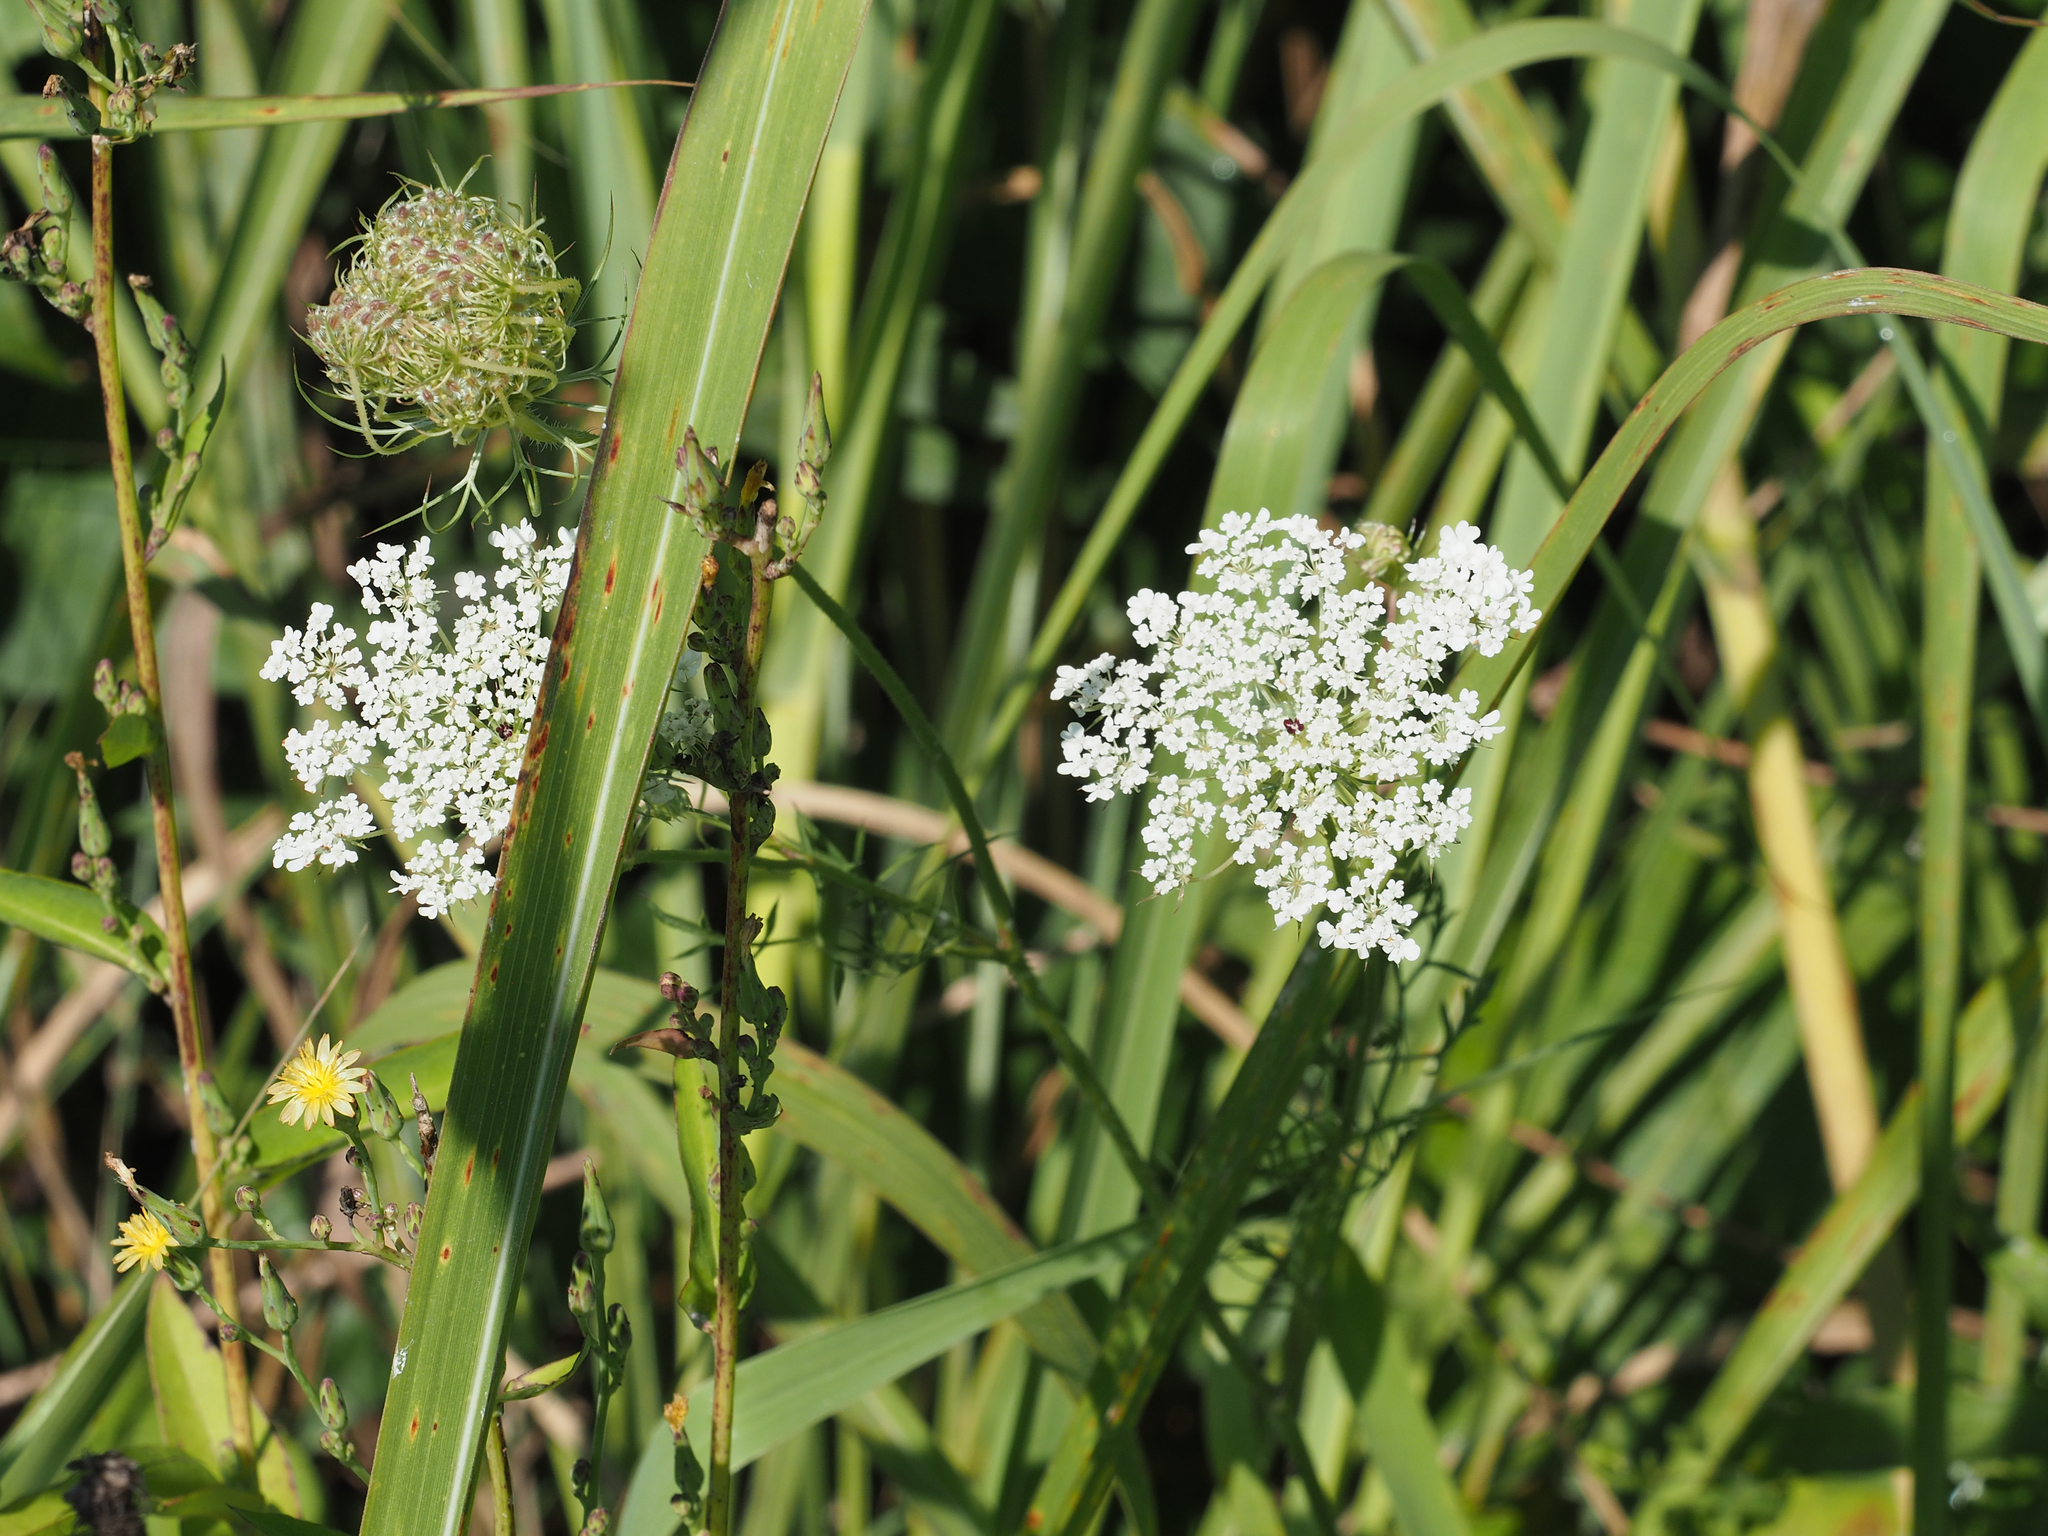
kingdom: Plantae
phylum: Tracheophyta
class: Magnoliopsida
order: Apiales
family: Apiaceae
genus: Daucus
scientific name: Daucus carota
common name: Wild carrot
